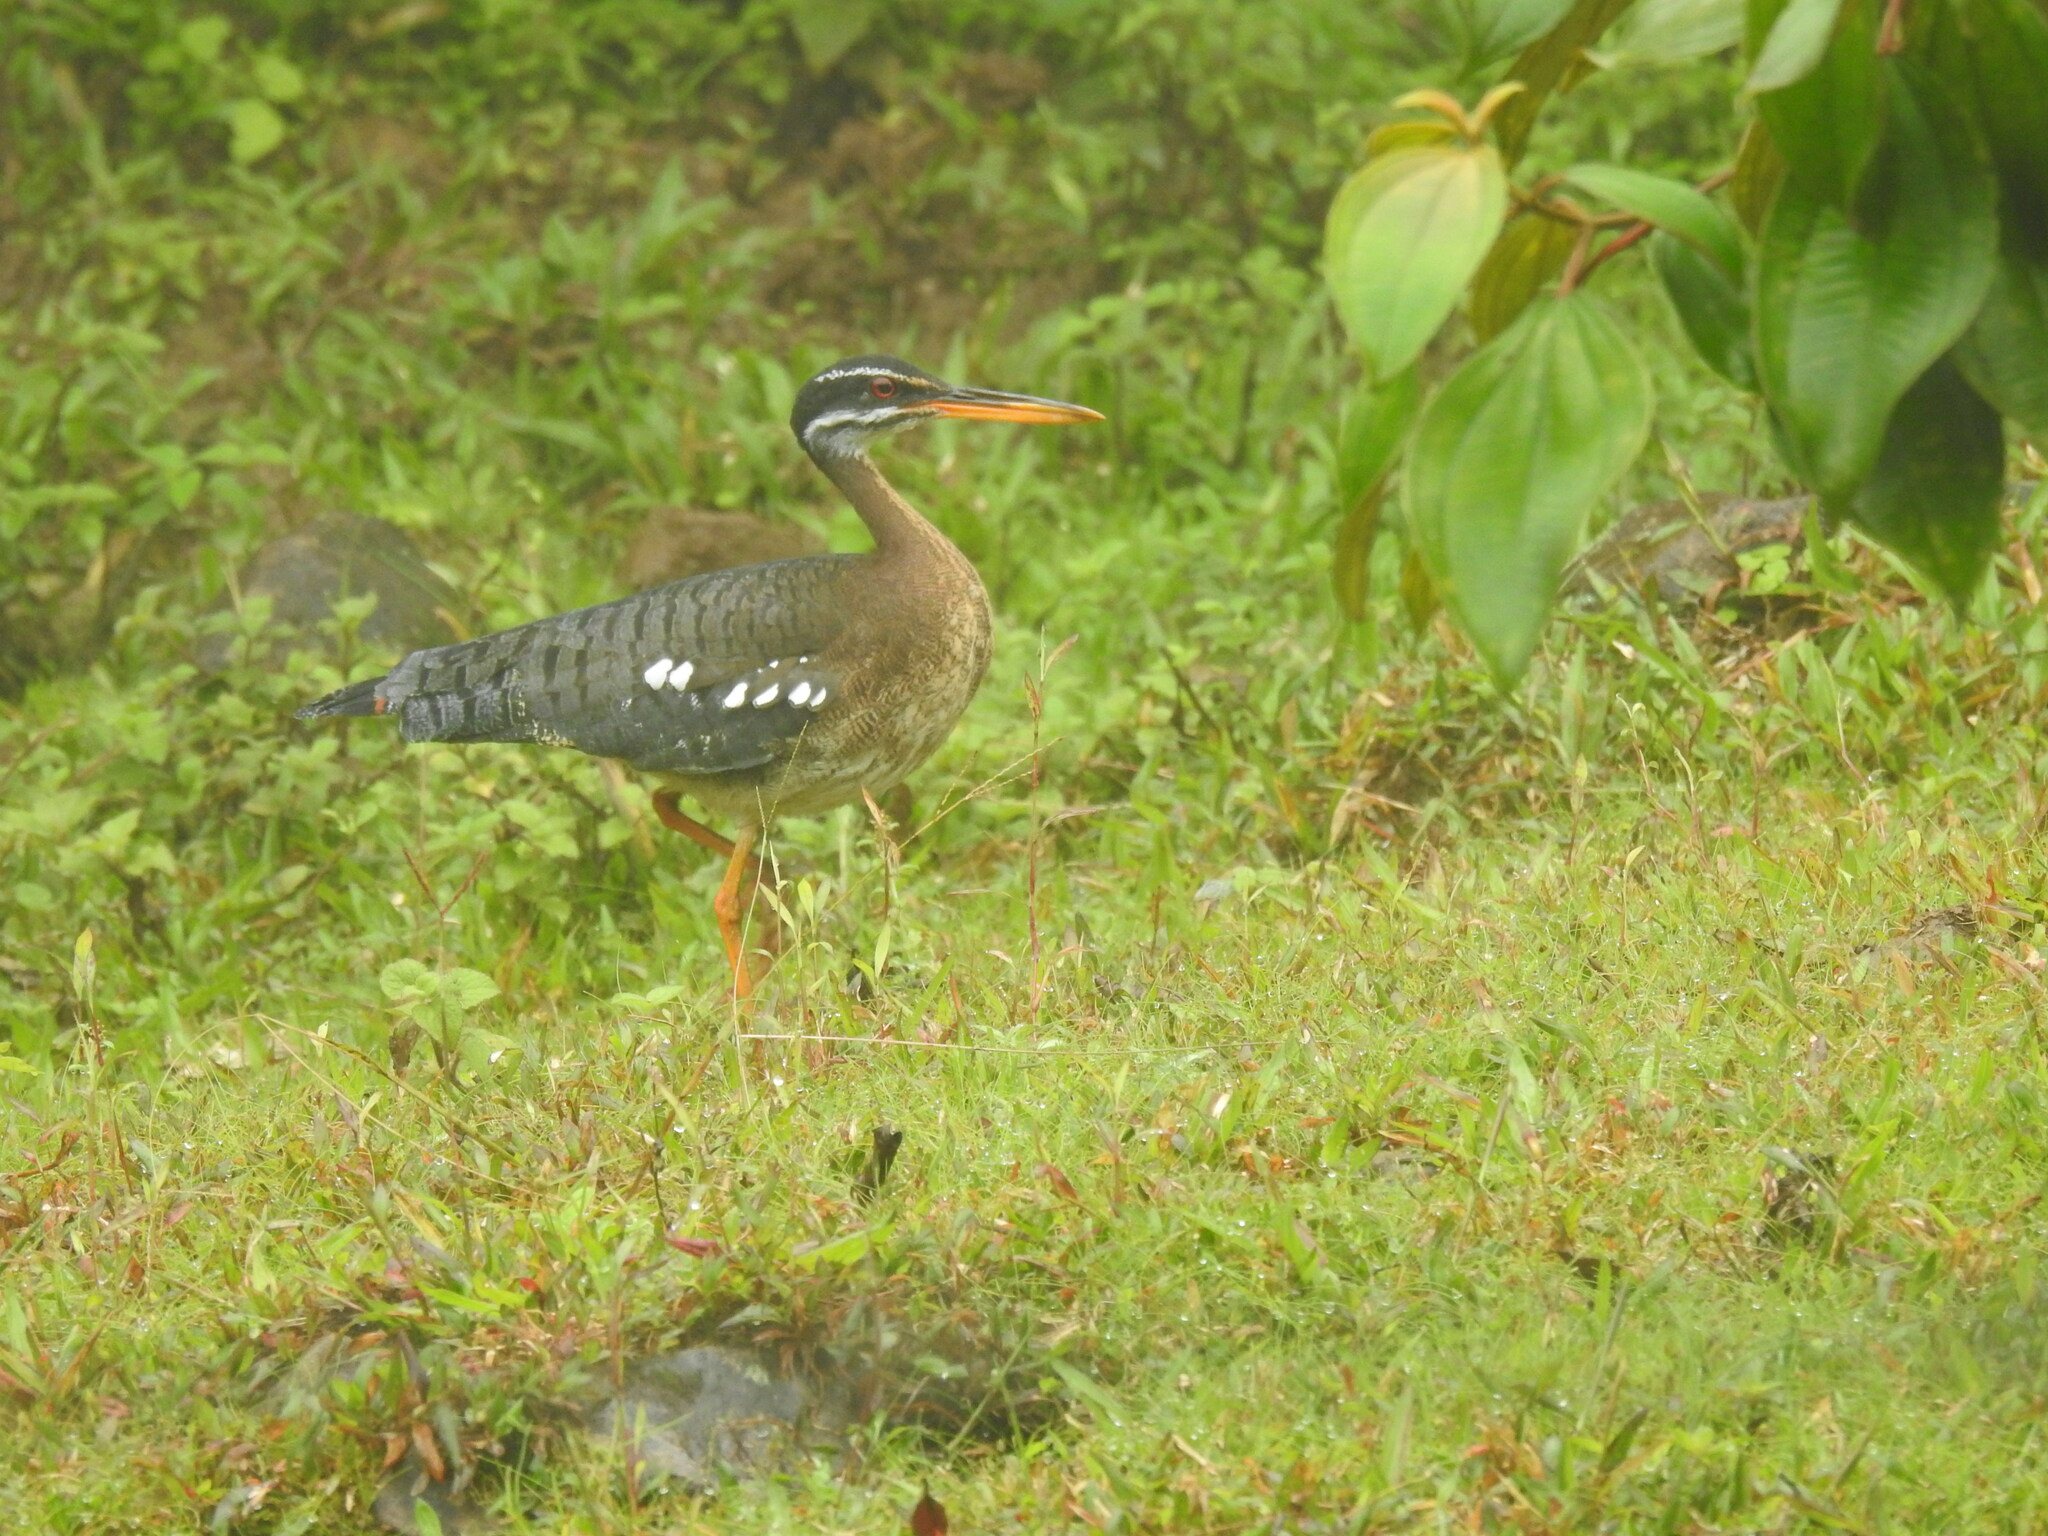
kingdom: Animalia
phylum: Chordata
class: Aves
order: Eurypygiformes
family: Eurypygidae
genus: Eurypyga
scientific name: Eurypyga helias
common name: Sunbittern
